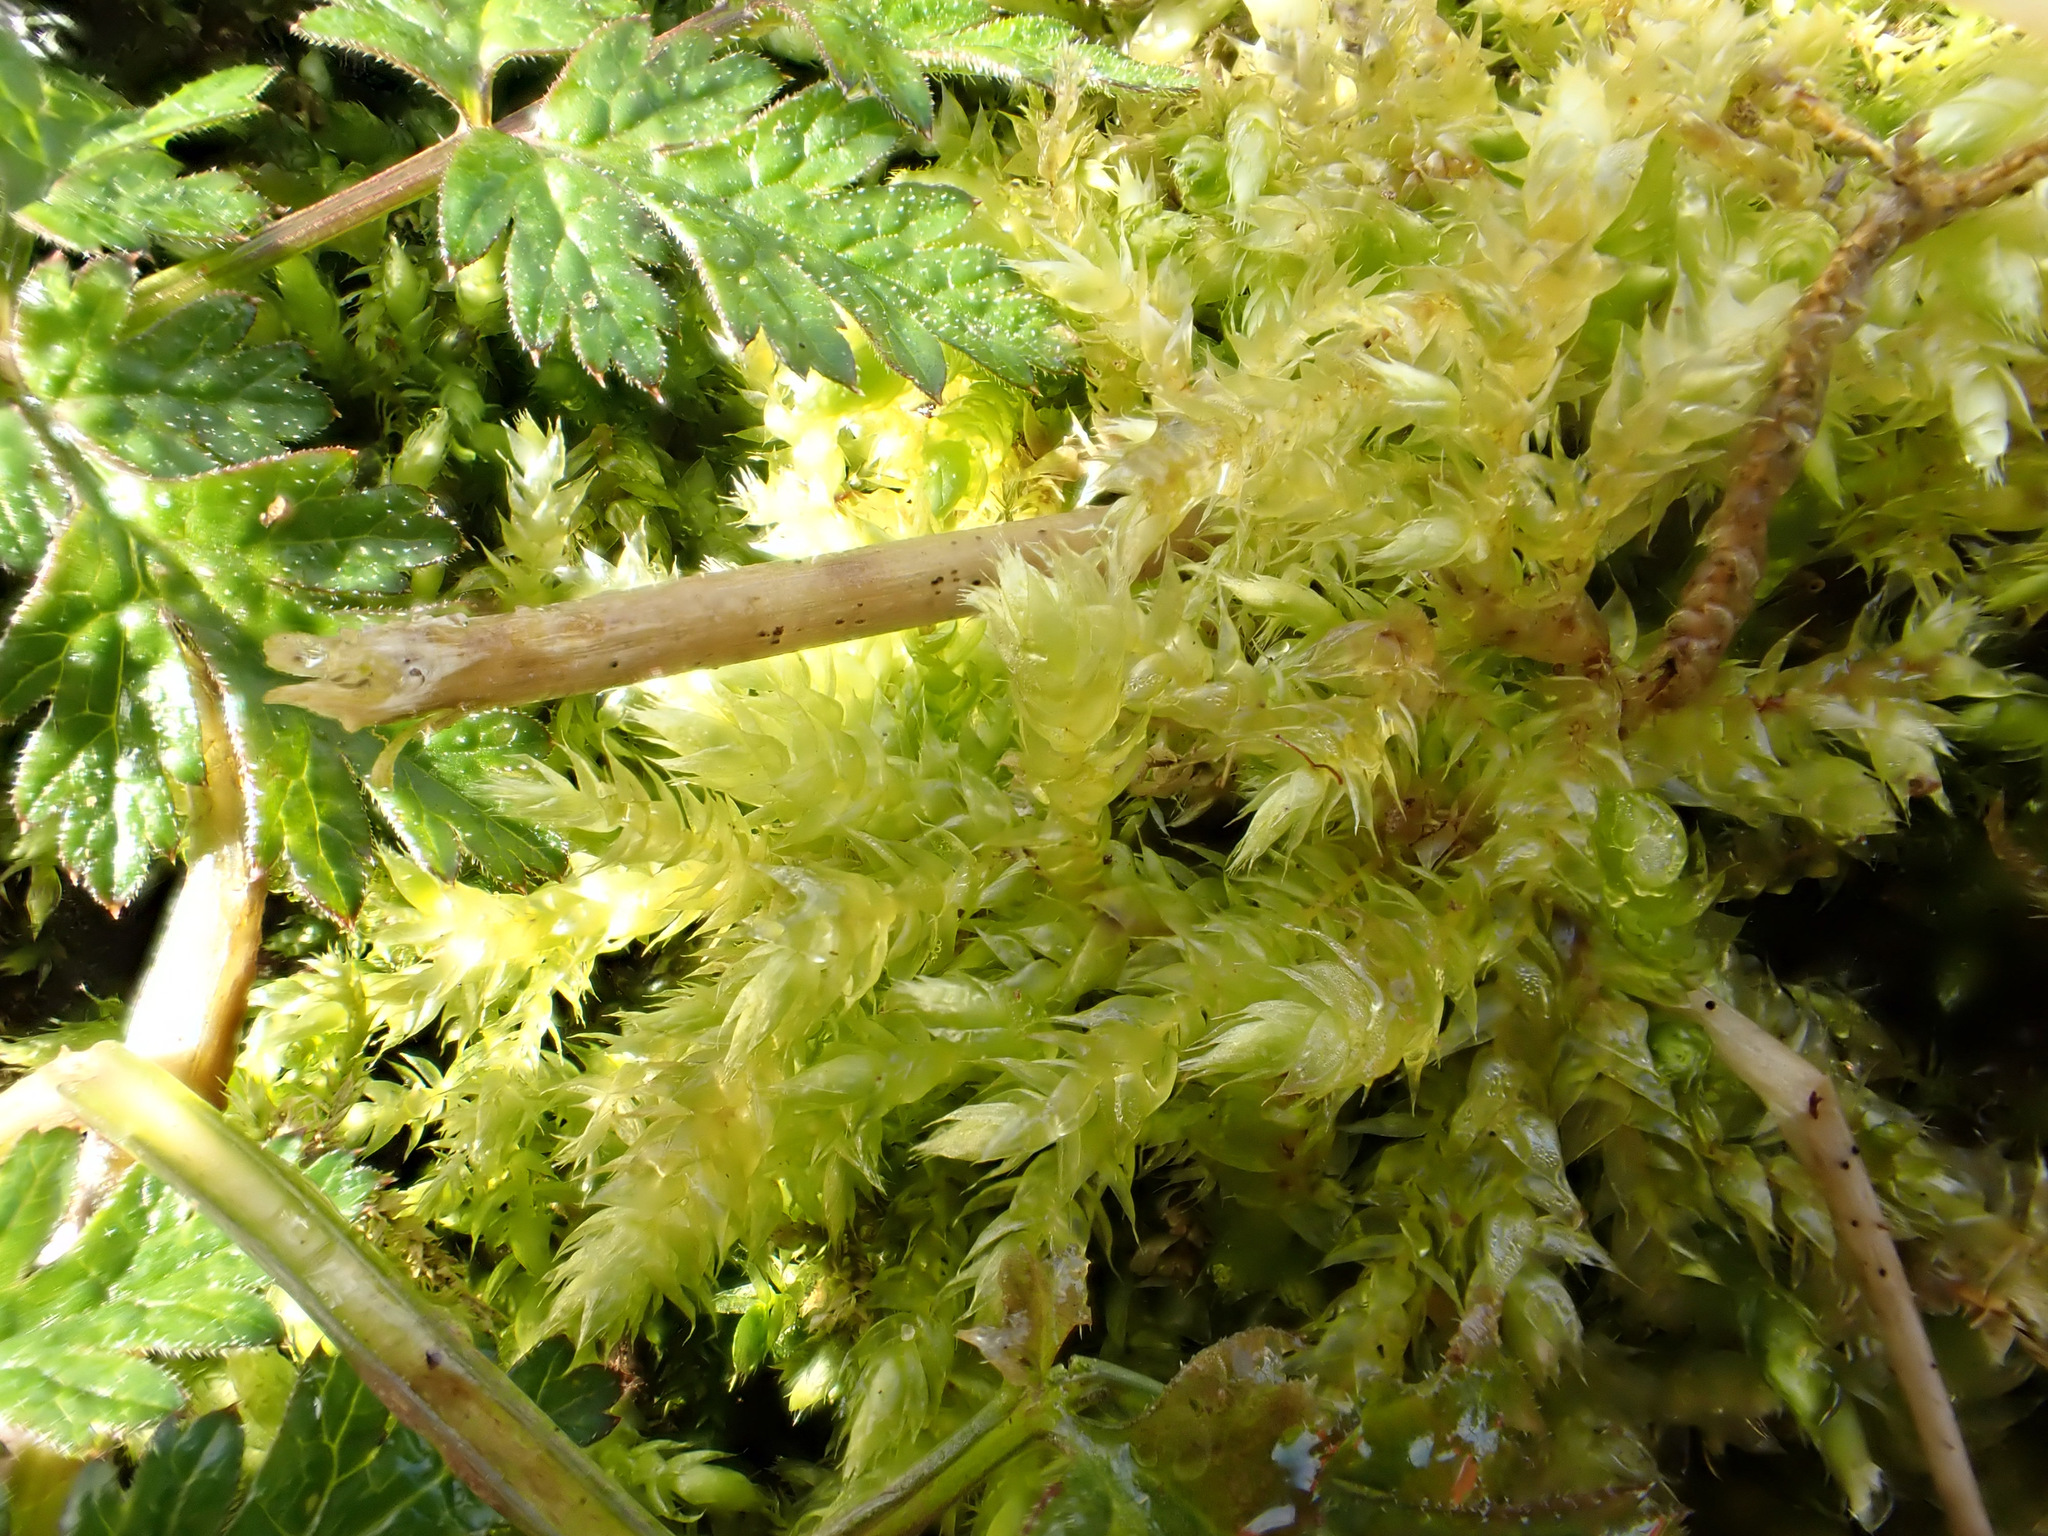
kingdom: Plantae
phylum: Bryophyta
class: Bryopsida
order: Hypnales
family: Brachytheciaceae
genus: Brachythecium
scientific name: Brachythecium rutabulum
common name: Rough-stalked feather-moss
